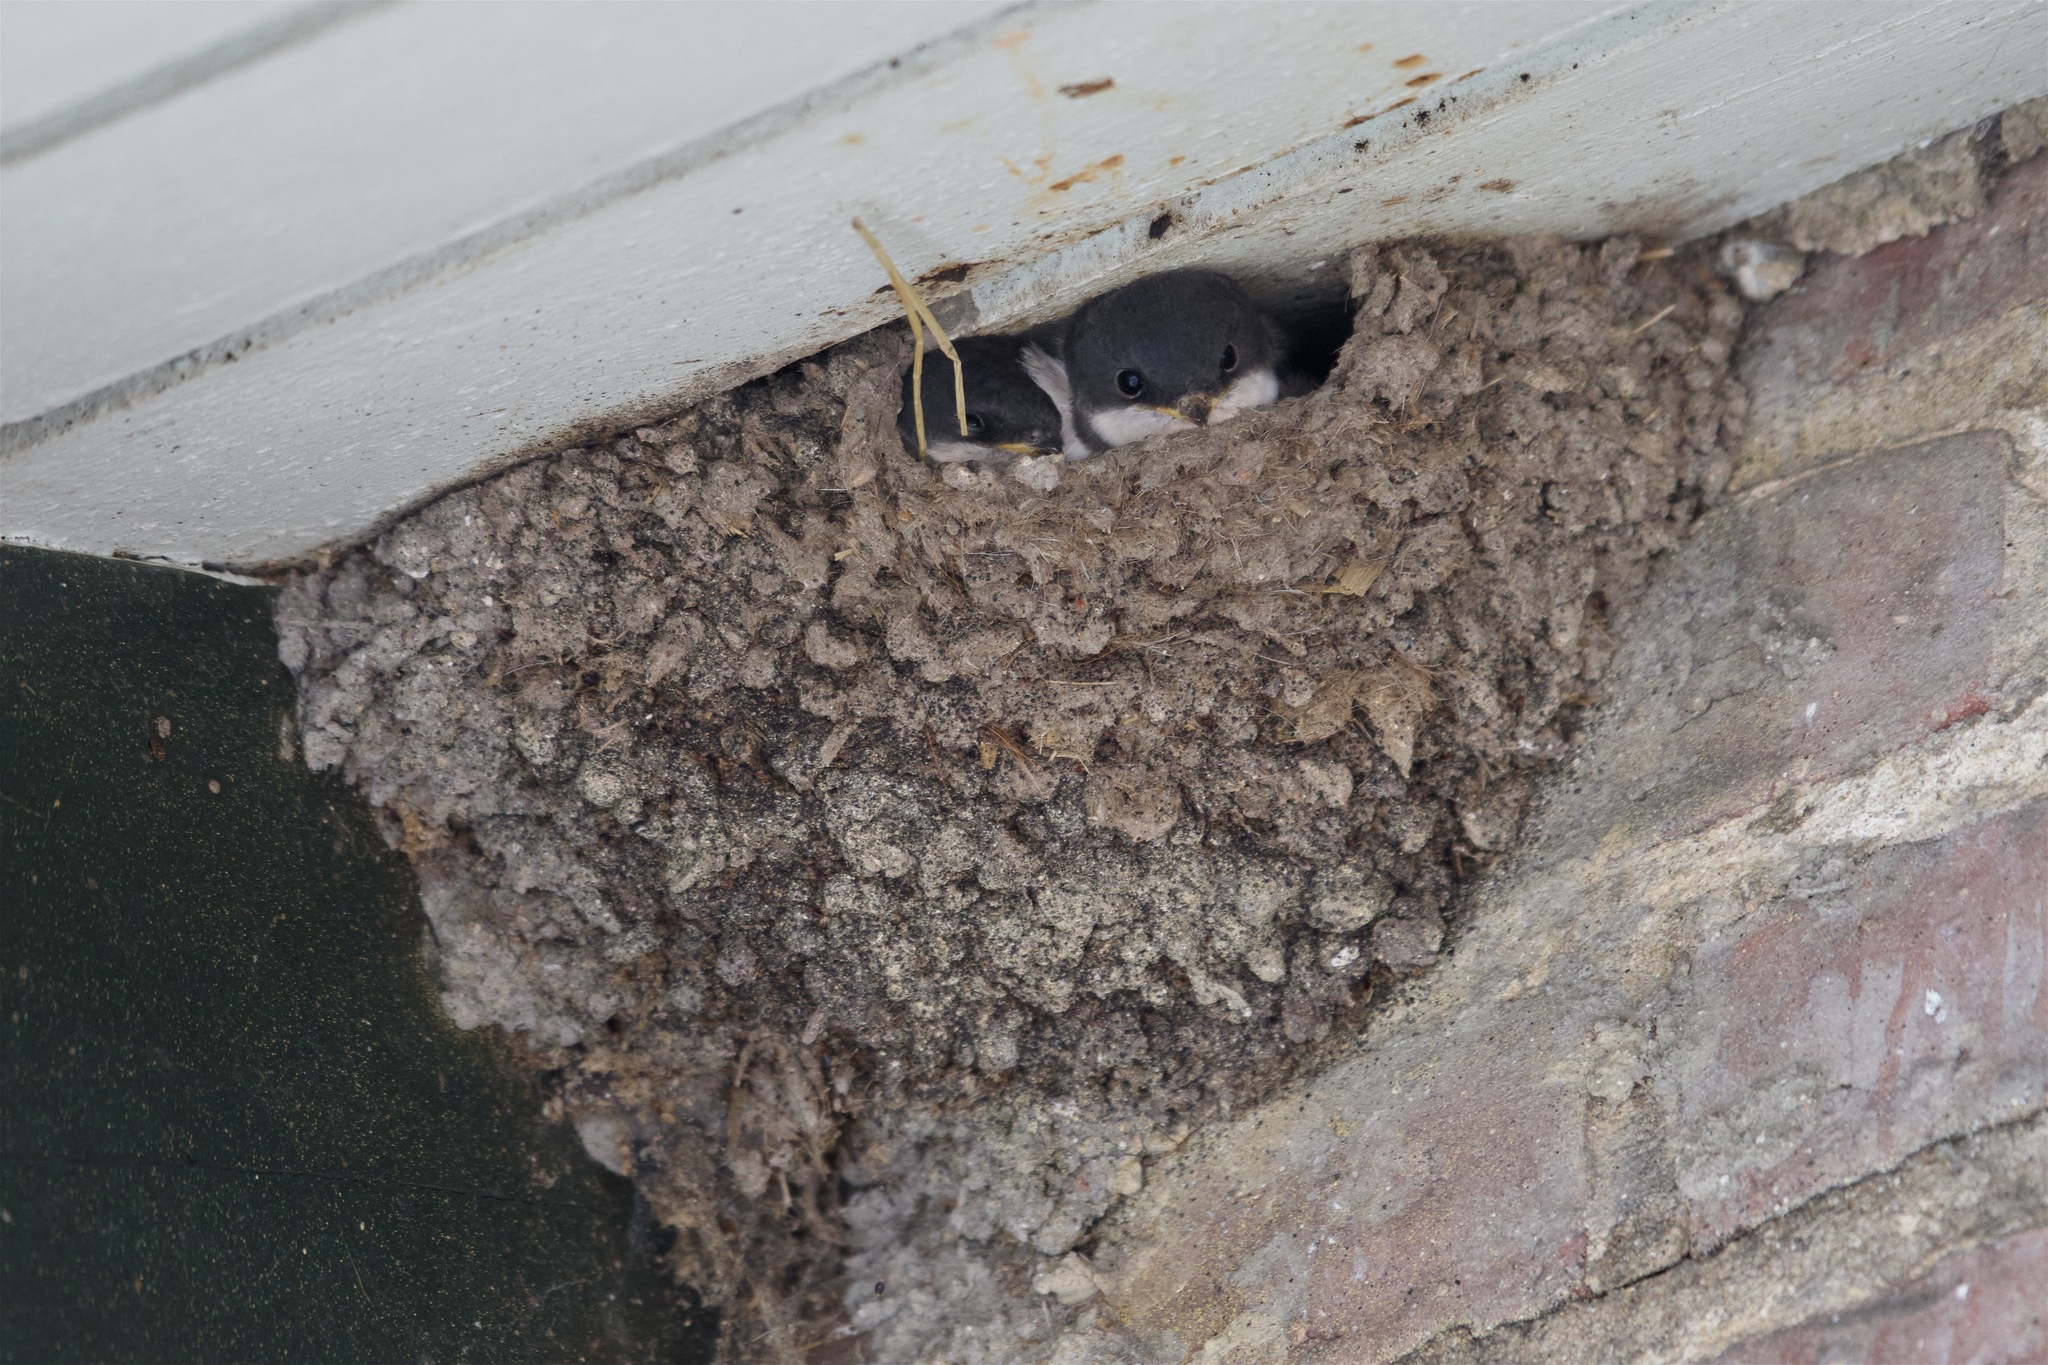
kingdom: Animalia
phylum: Chordata
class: Aves
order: Passeriformes
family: Hirundinidae
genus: Delichon
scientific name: Delichon urbicum
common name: Common house martin
